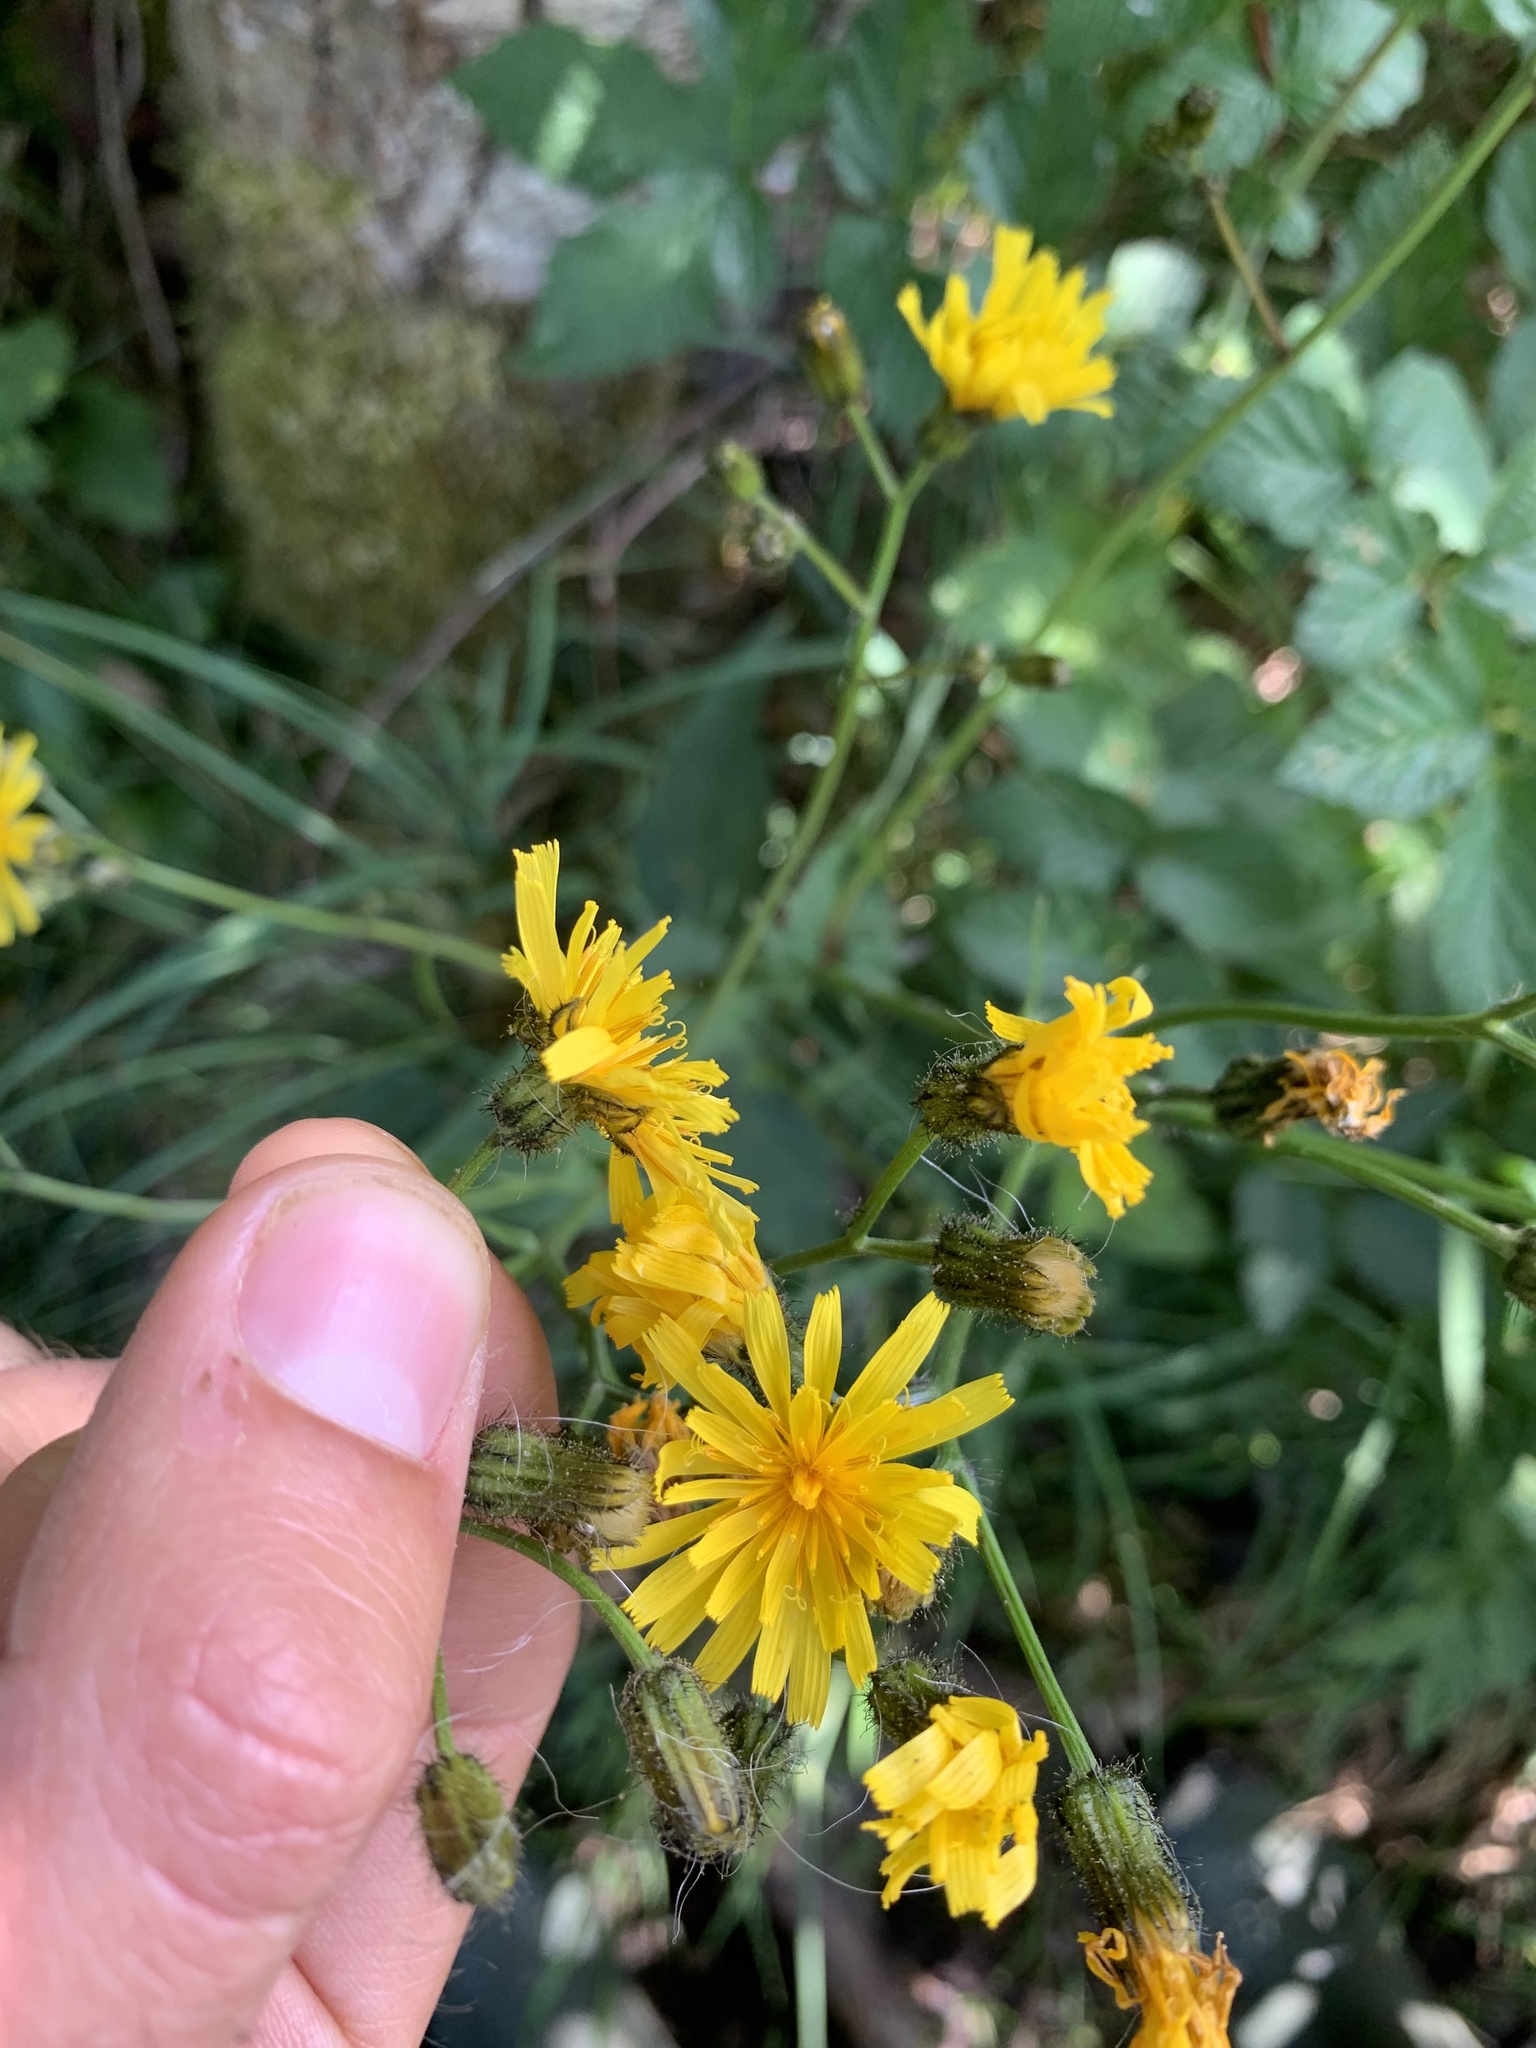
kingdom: Plantae
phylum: Tracheophyta
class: Magnoliopsida
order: Asterales
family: Asteraceae
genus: Crepis
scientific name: Crepis paludosa
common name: Marsh hawk's-beard
